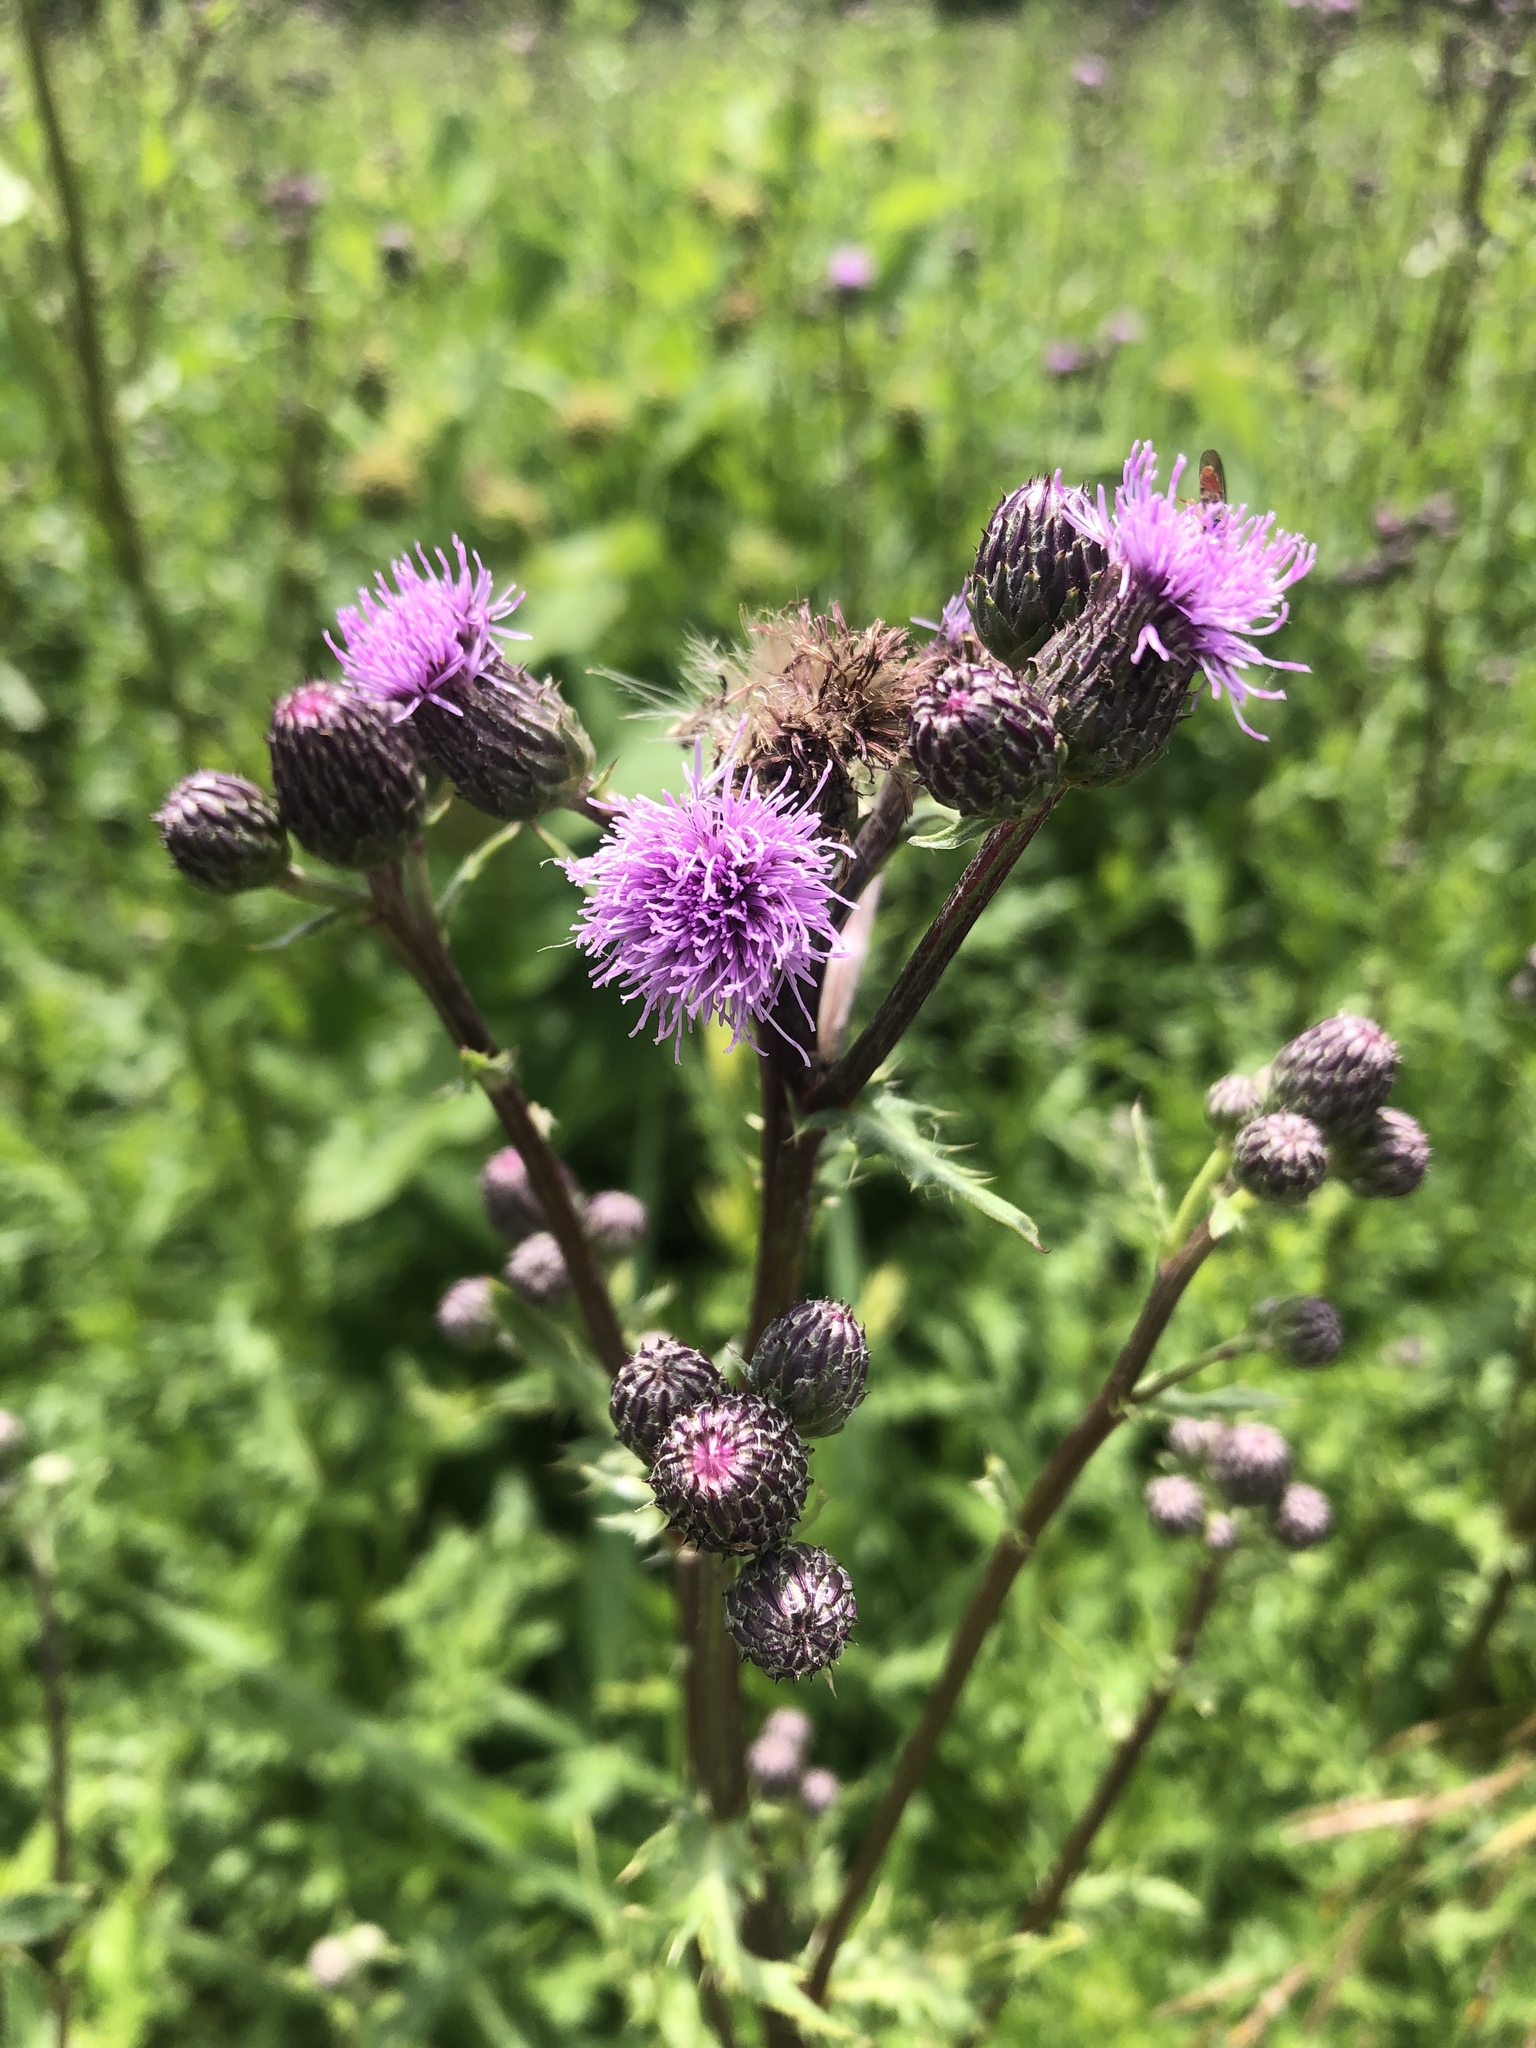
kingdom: Plantae
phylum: Tracheophyta
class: Magnoliopsida
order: Asterales
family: Asteraceae
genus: Cirsium
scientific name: Cirsium arvense
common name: Creeping thistle
